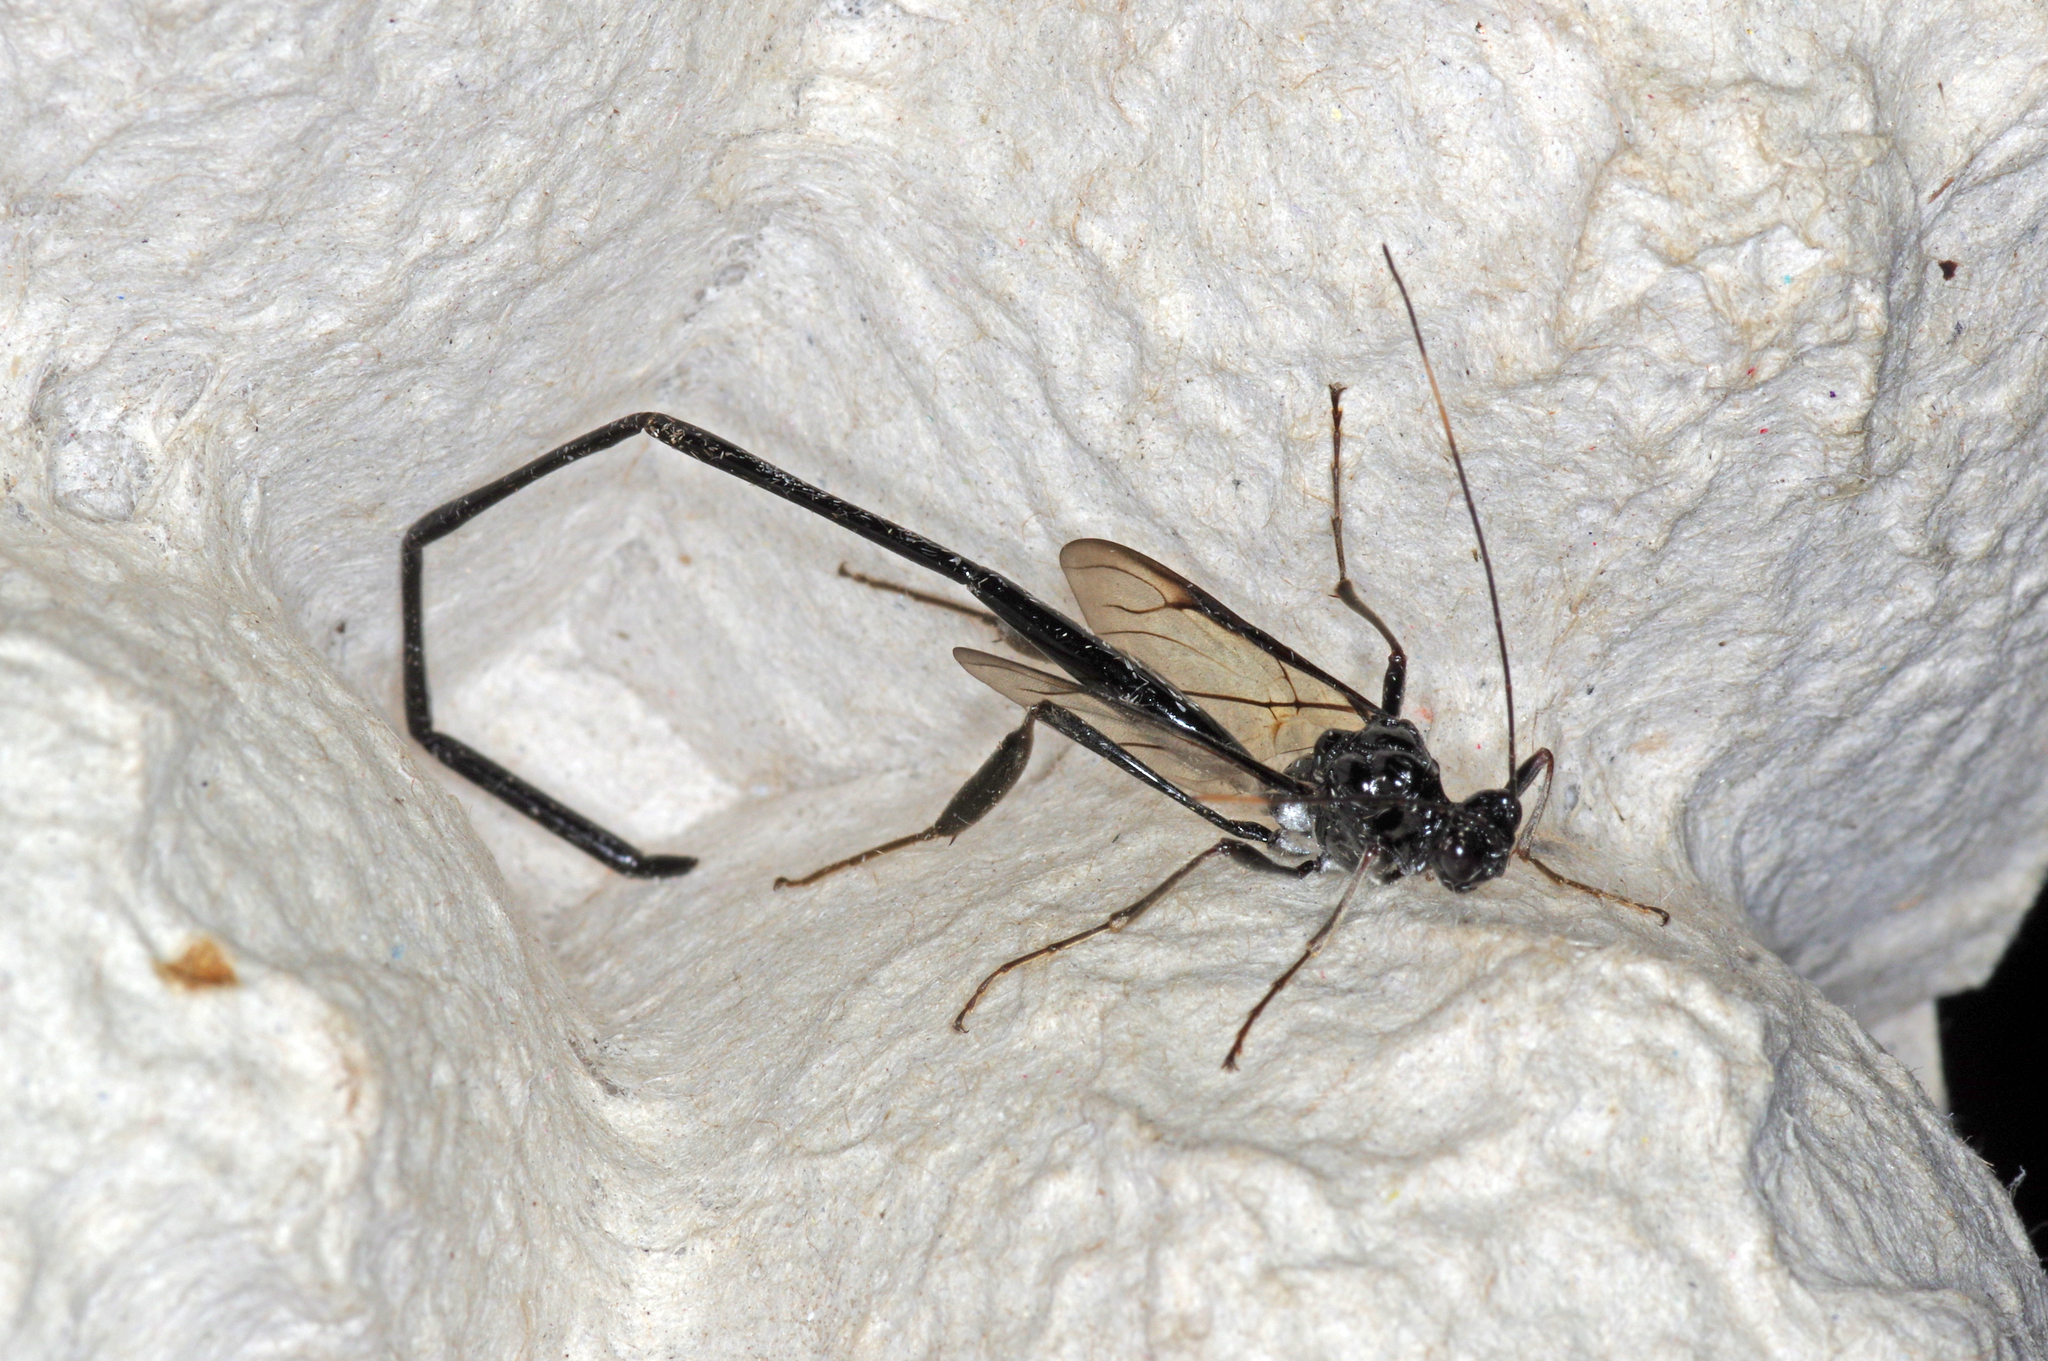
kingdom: Animalia
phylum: Arthropoda
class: Insecta
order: Hymenoptera
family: Pelecinidae
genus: Pelecinus
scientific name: Pelecinus polyturator
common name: American pelecinid wasp
